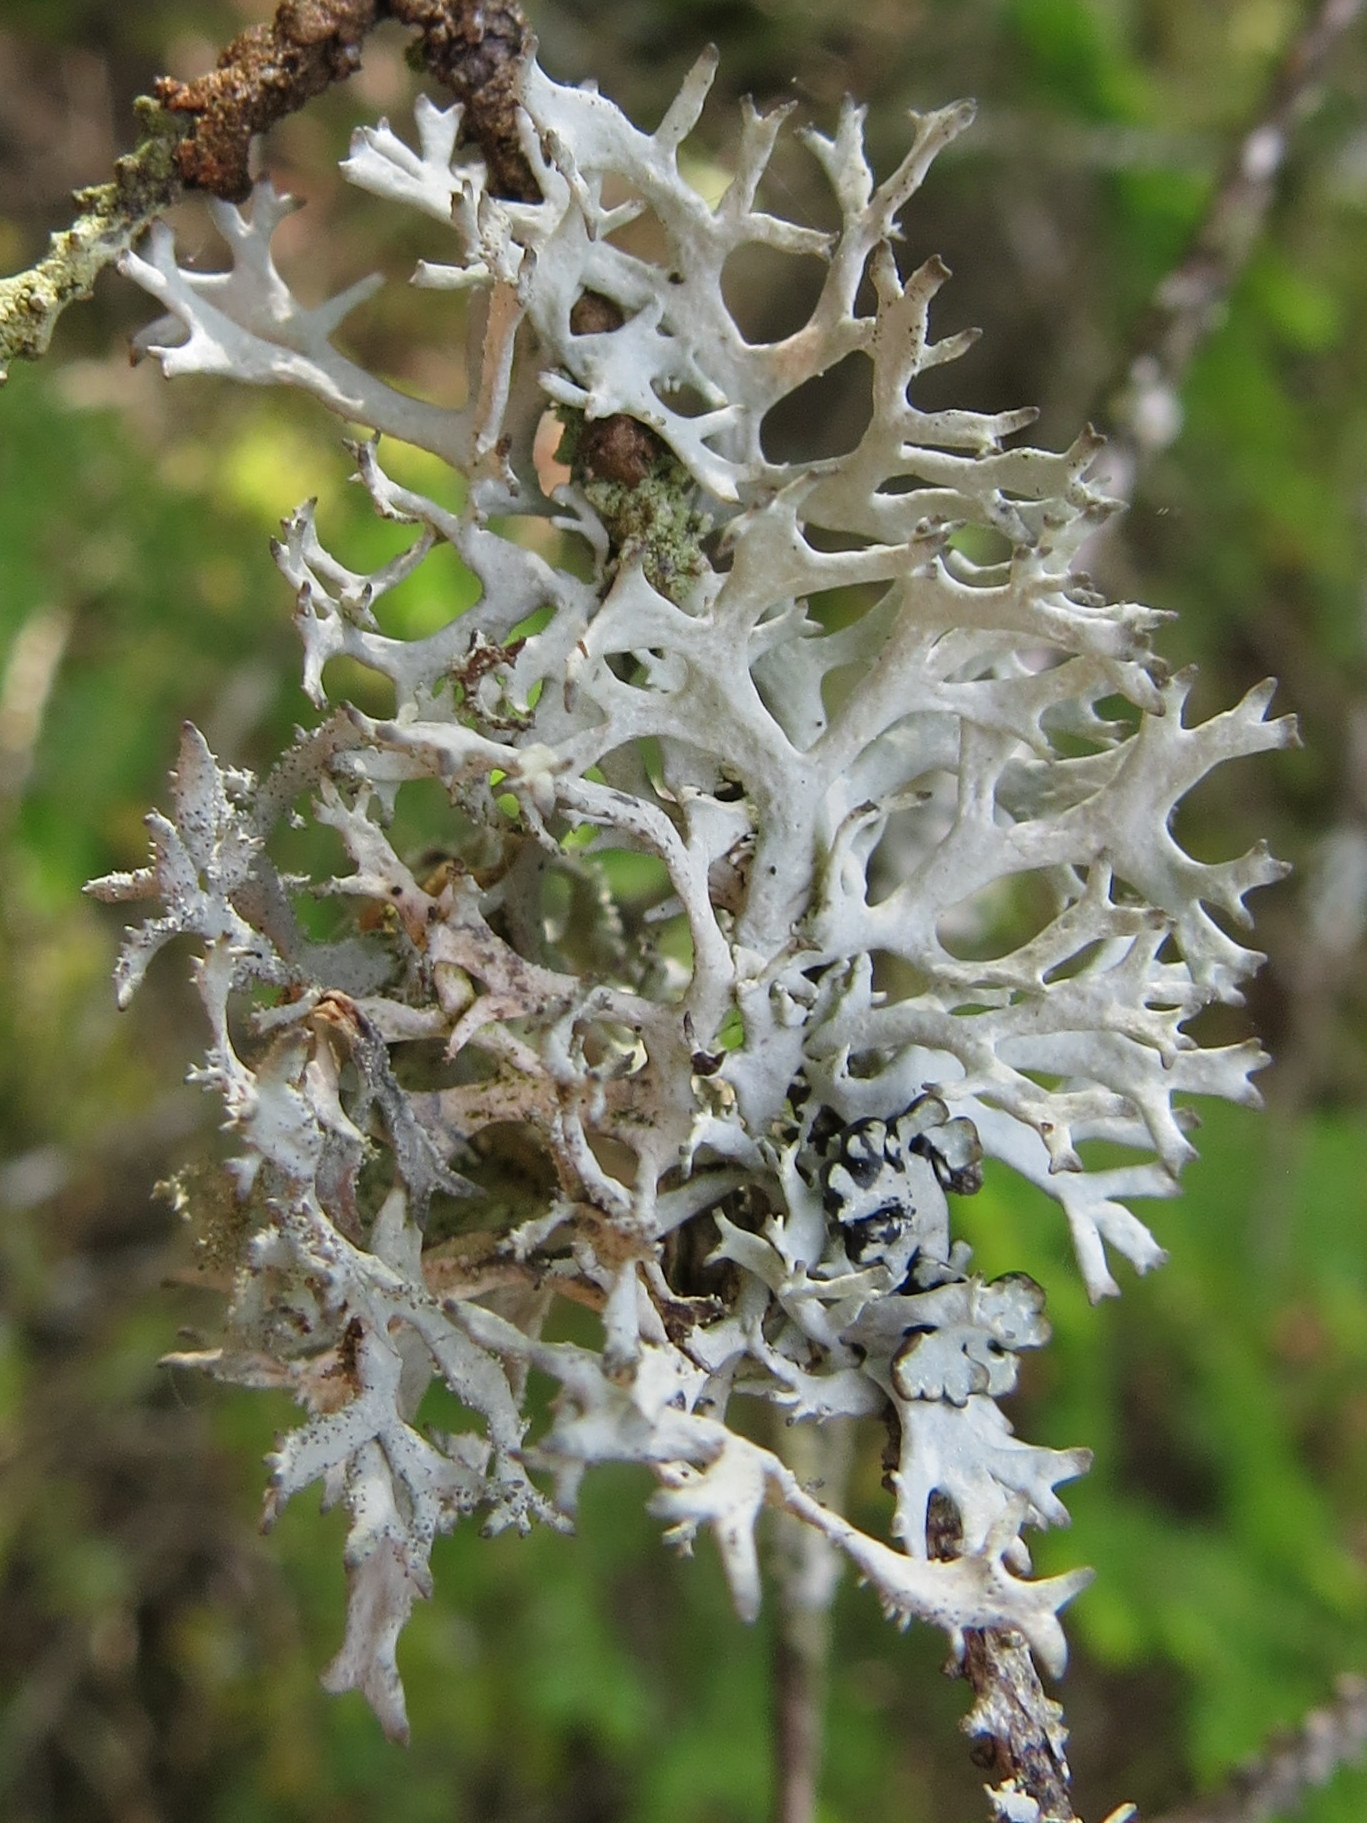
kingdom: Fungi
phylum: Ascomycota
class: Lecanoromycetes
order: Lecanorales
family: Parmeliaceae
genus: Pseudevernia
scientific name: Pseudevernia consocians
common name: Common antler lichen
